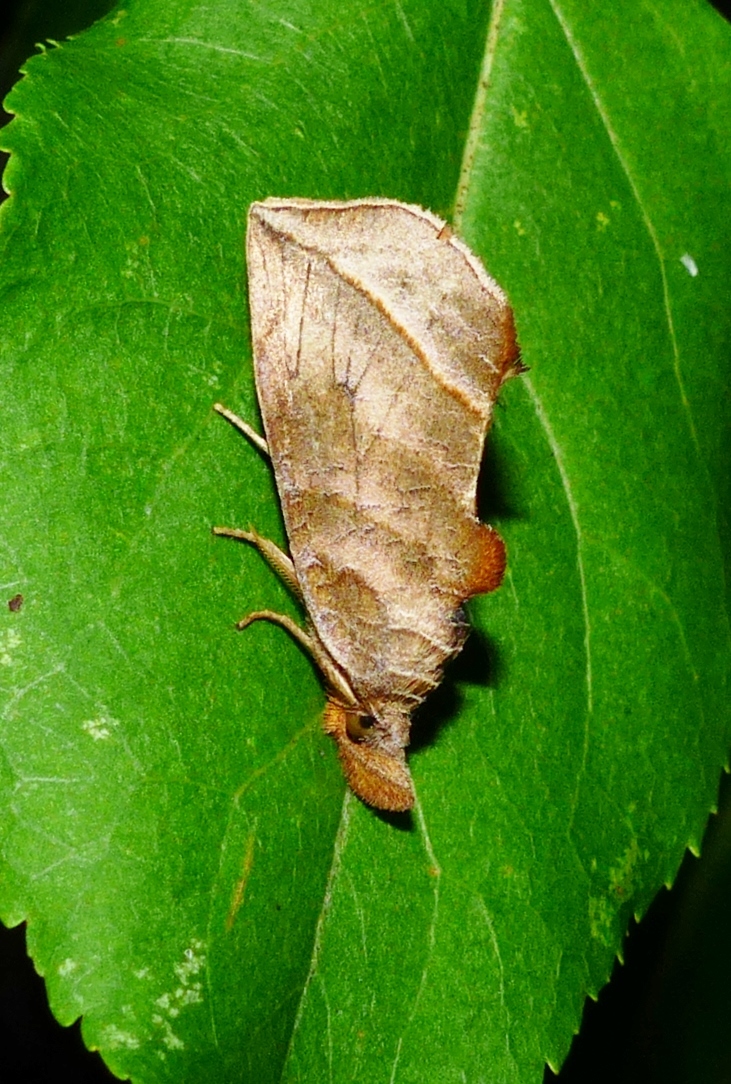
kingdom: Animalia
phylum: Arthropoda
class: Insecta
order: Lepidoptera
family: Erebidae
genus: Calyptra
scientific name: Calyptra canadensis
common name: Canadian owlet
